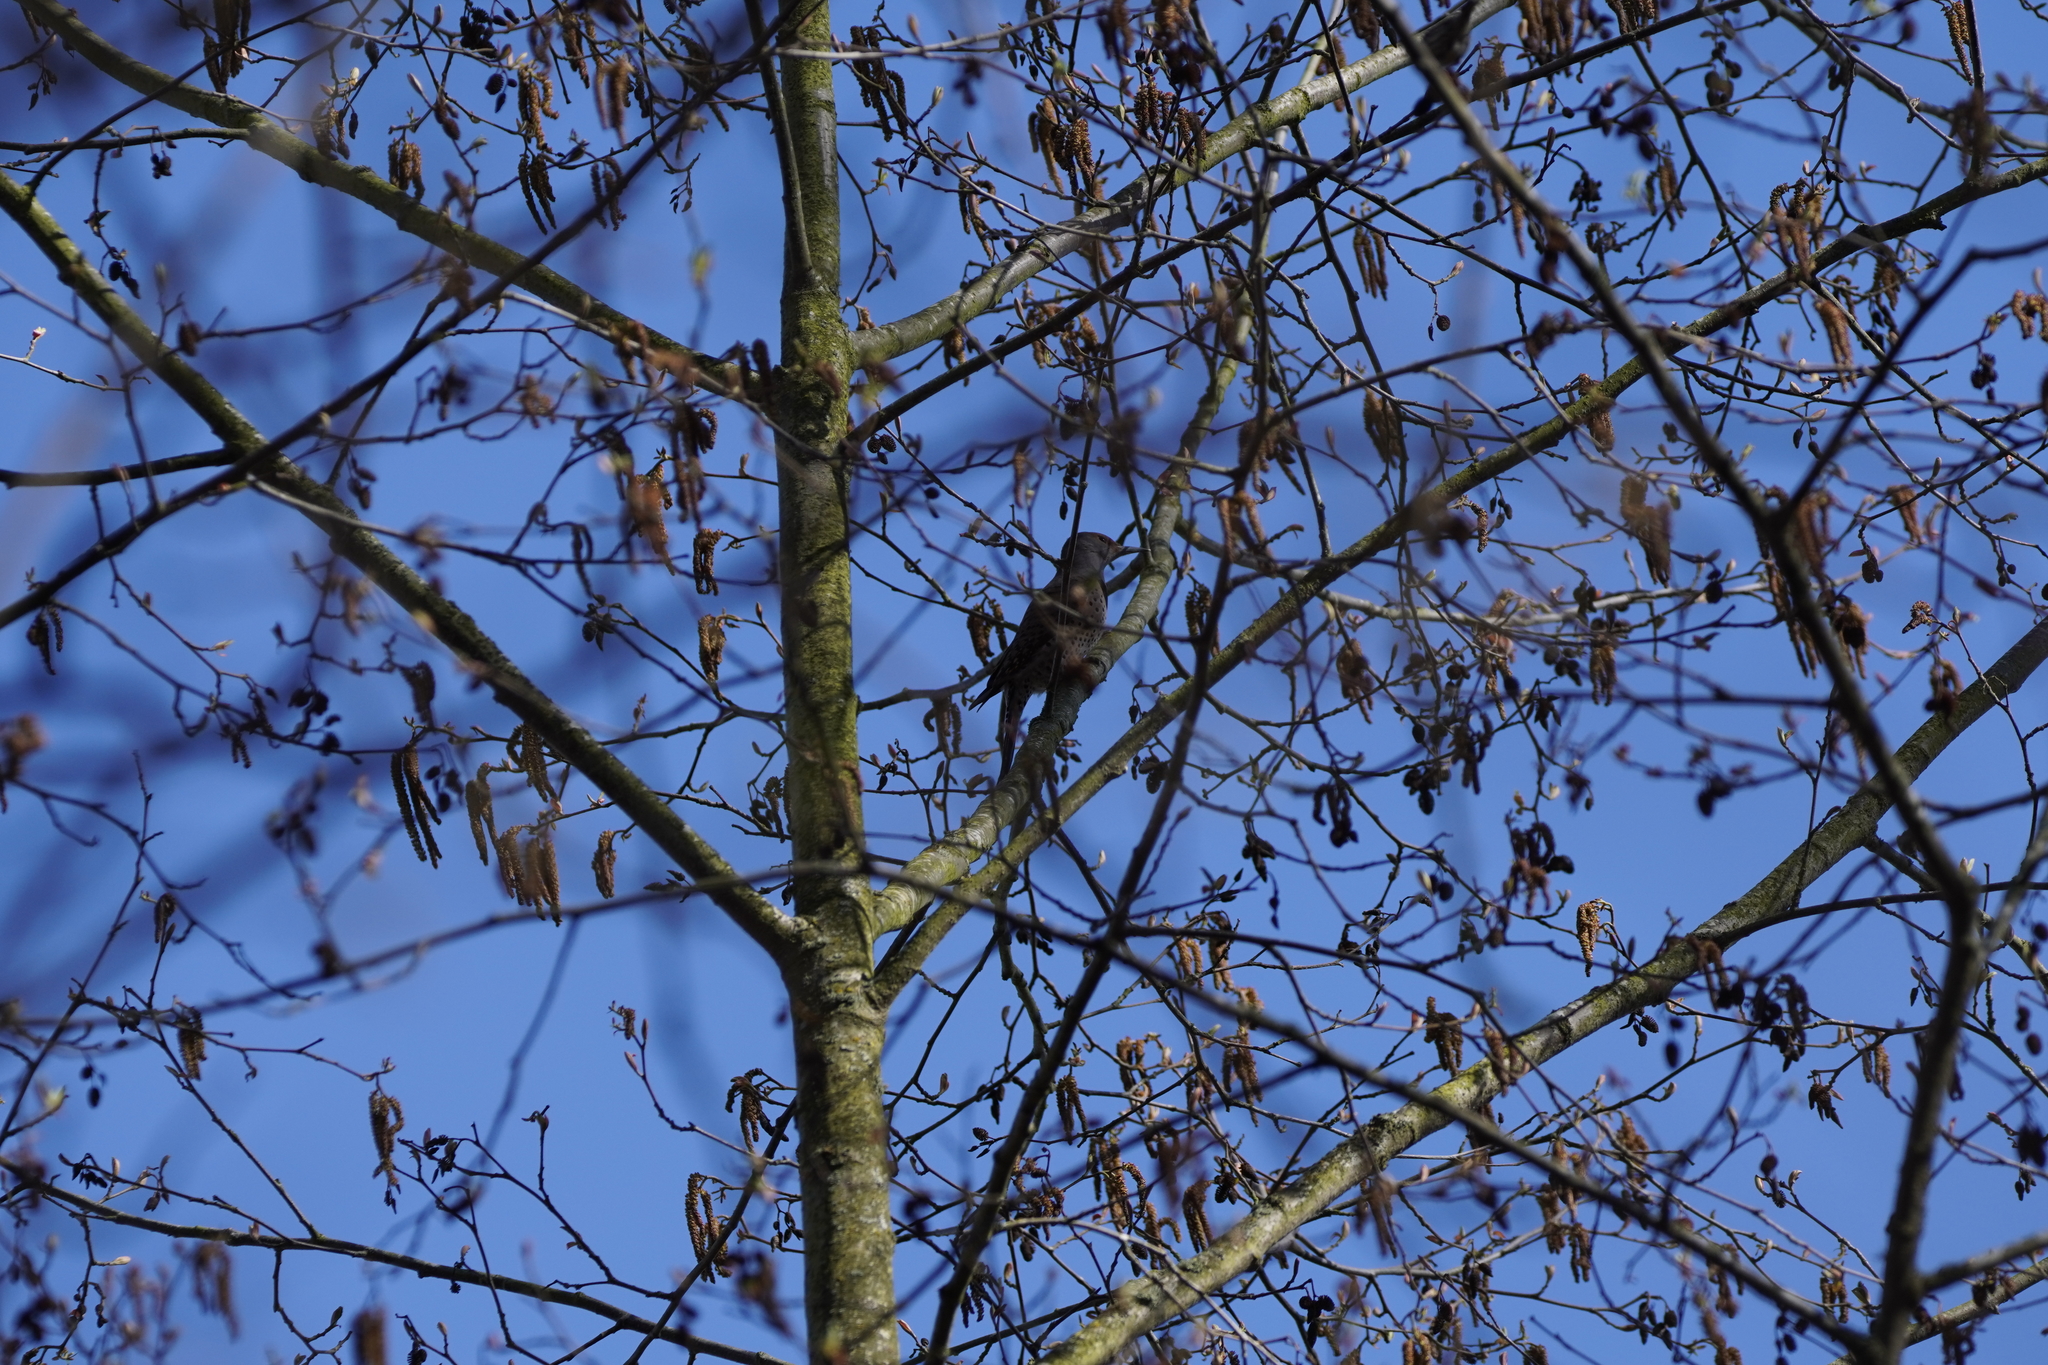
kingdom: Animalia
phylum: Chordata
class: Aves
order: Piciformes
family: Picidae
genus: Colaptes
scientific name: Colaptes auratus
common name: Northern flicker
